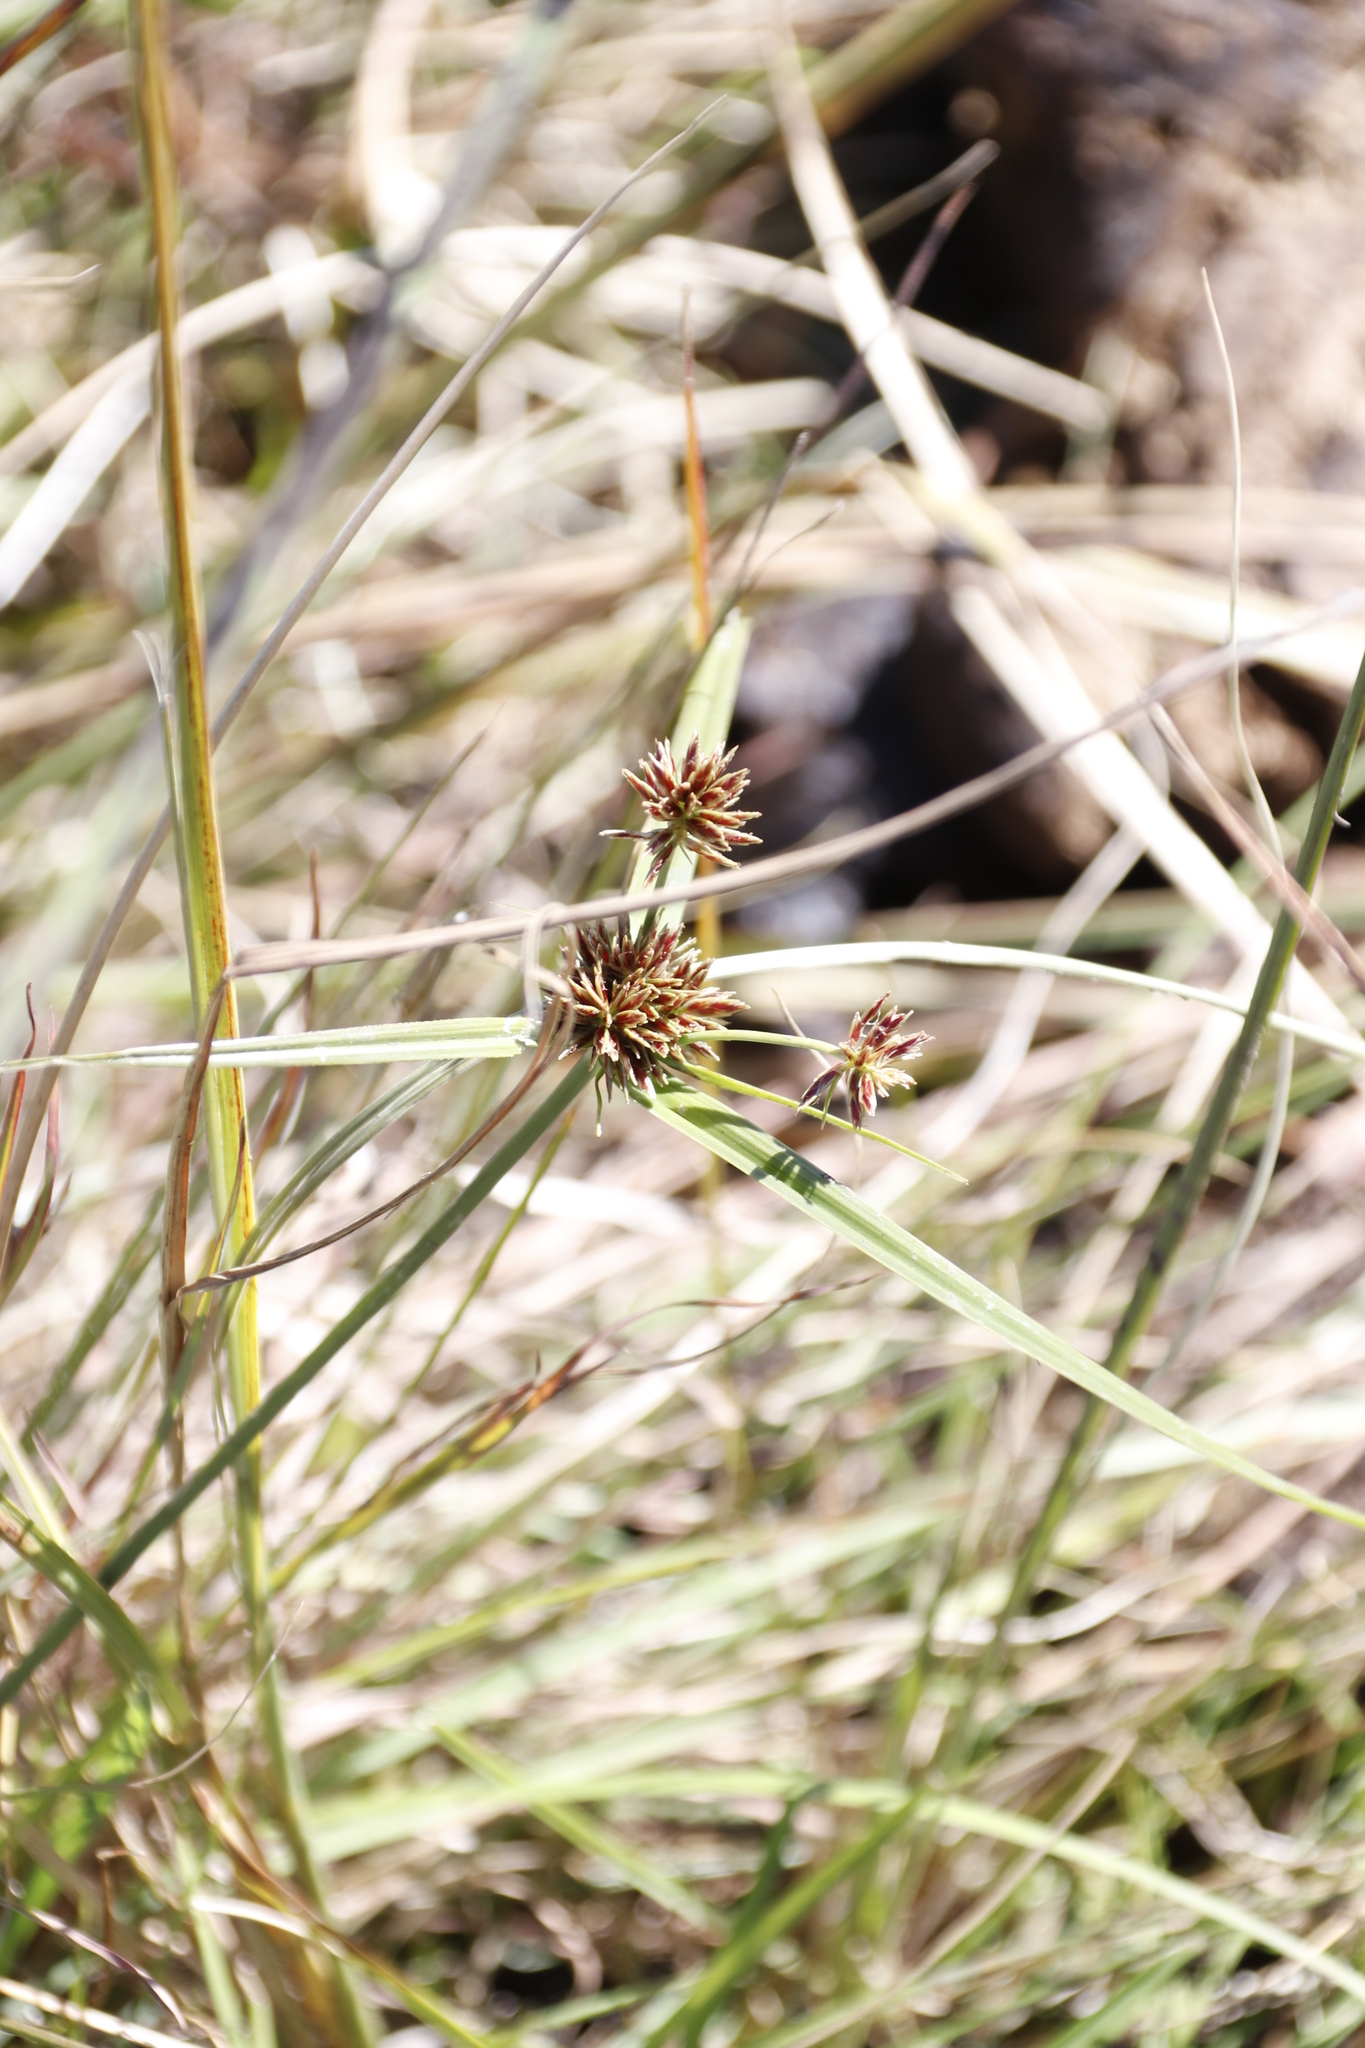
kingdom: Plantae
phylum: Tracheophyta
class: Liliopsida
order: Poales
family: Cyperaceae
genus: Cyperus
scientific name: Cyperus congestus
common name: Dense flat sedge
